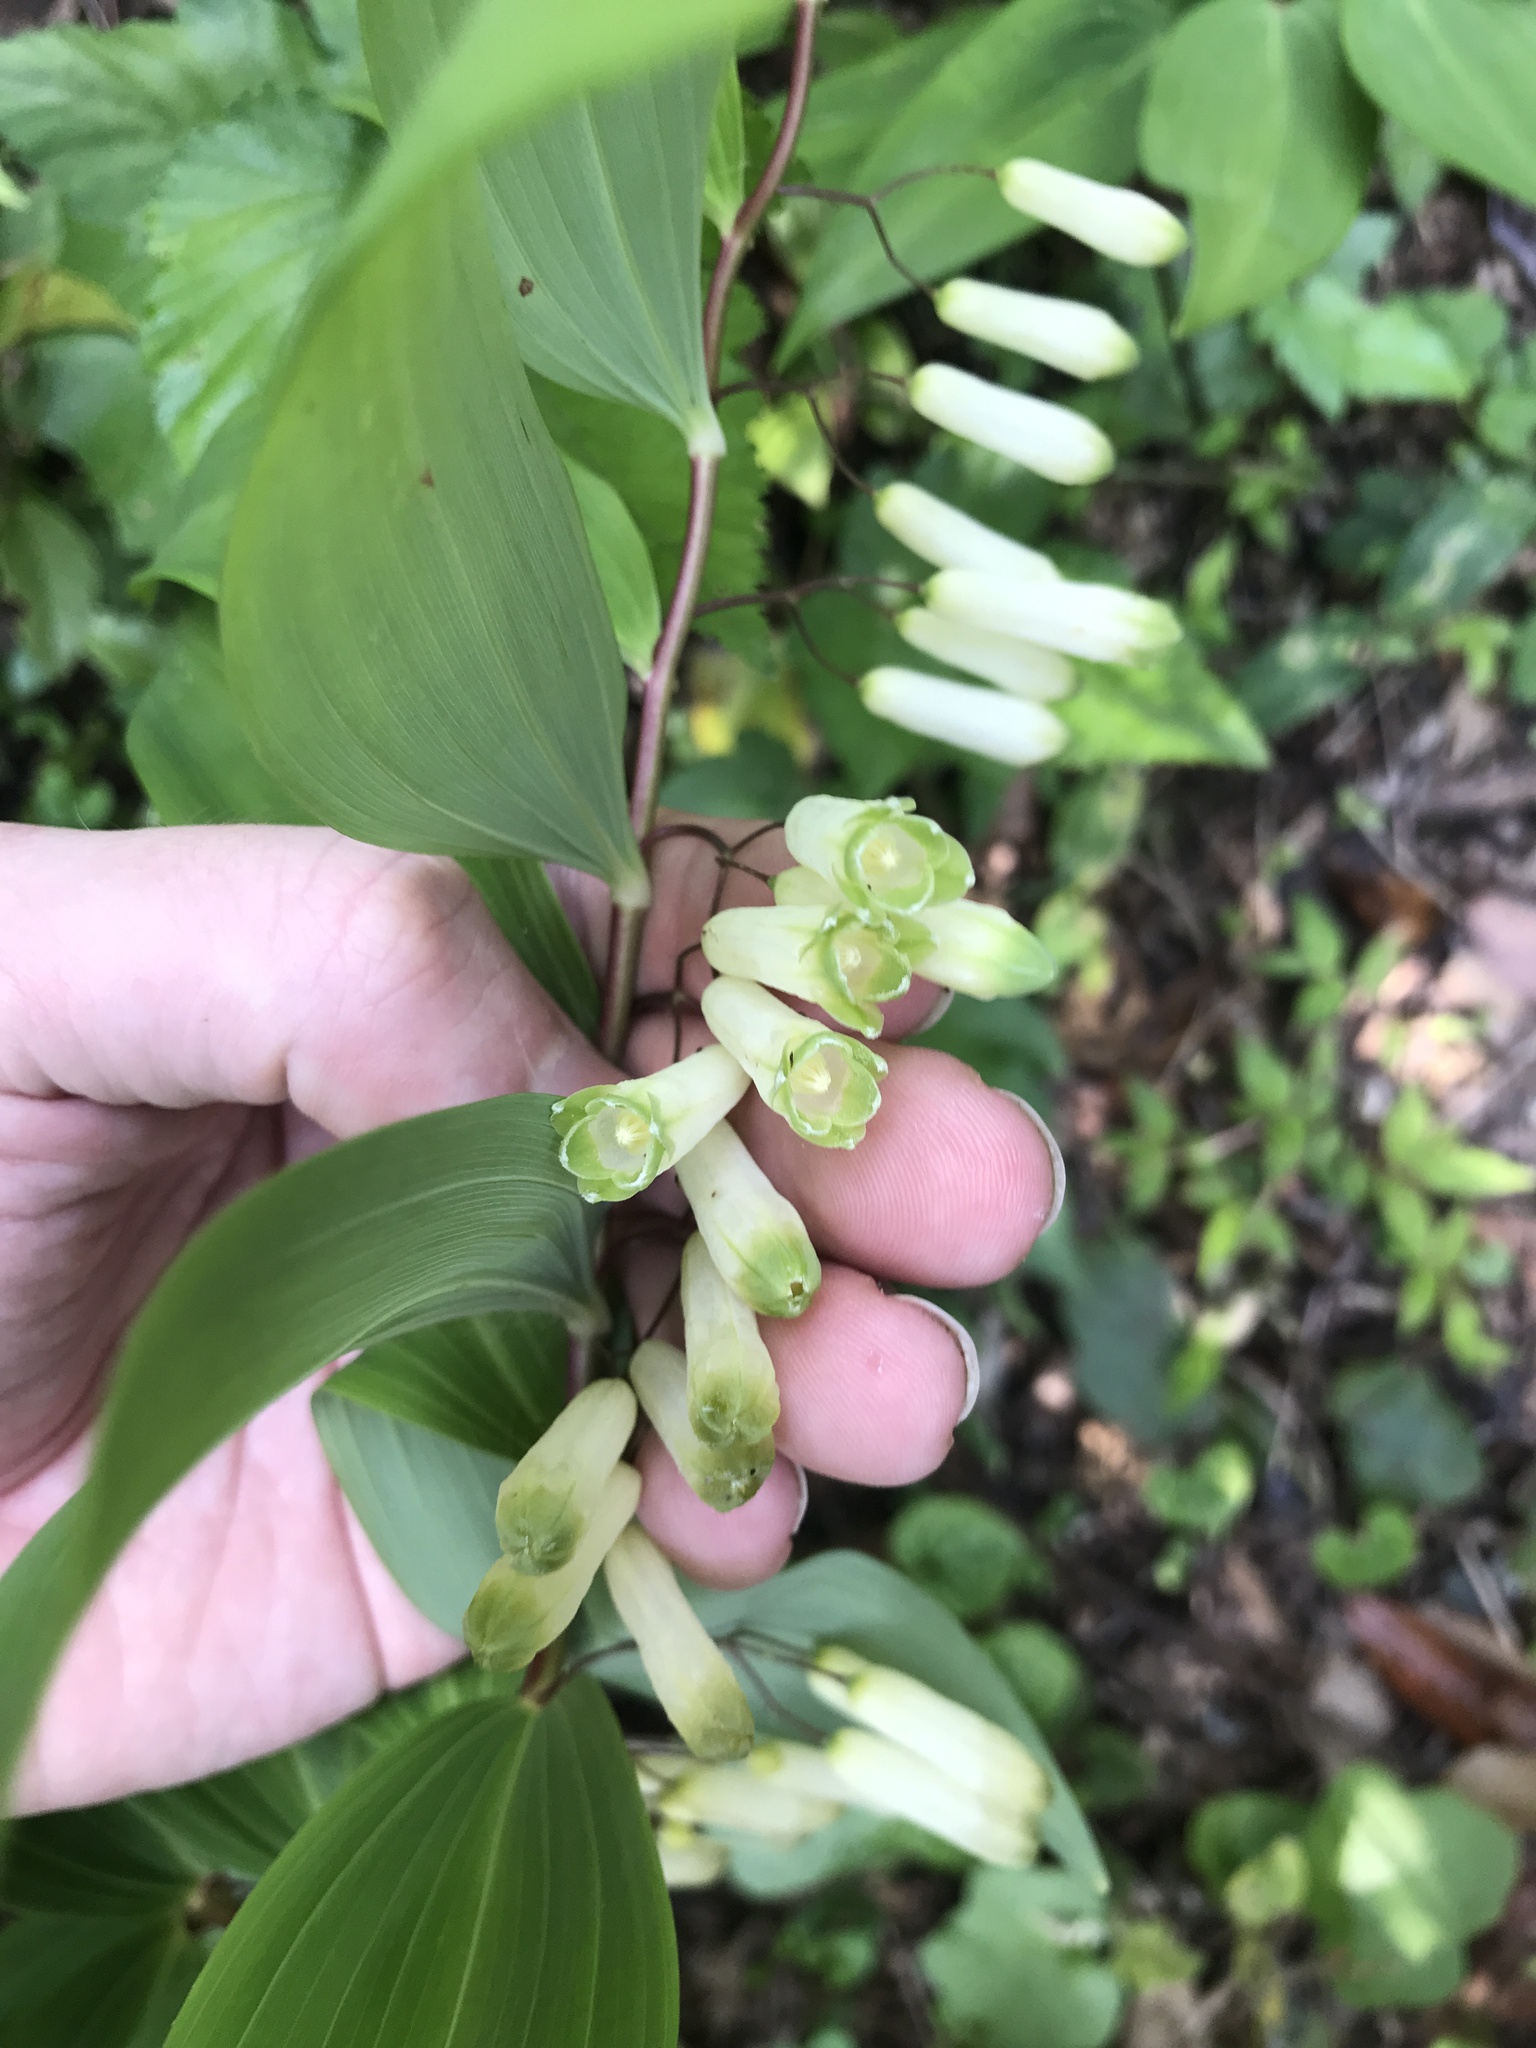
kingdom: Plantae
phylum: Tracheophyta
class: Liliopsida
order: Asparagales
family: Asparagaceae
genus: Polygonatum
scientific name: Polygonatum falcatum
